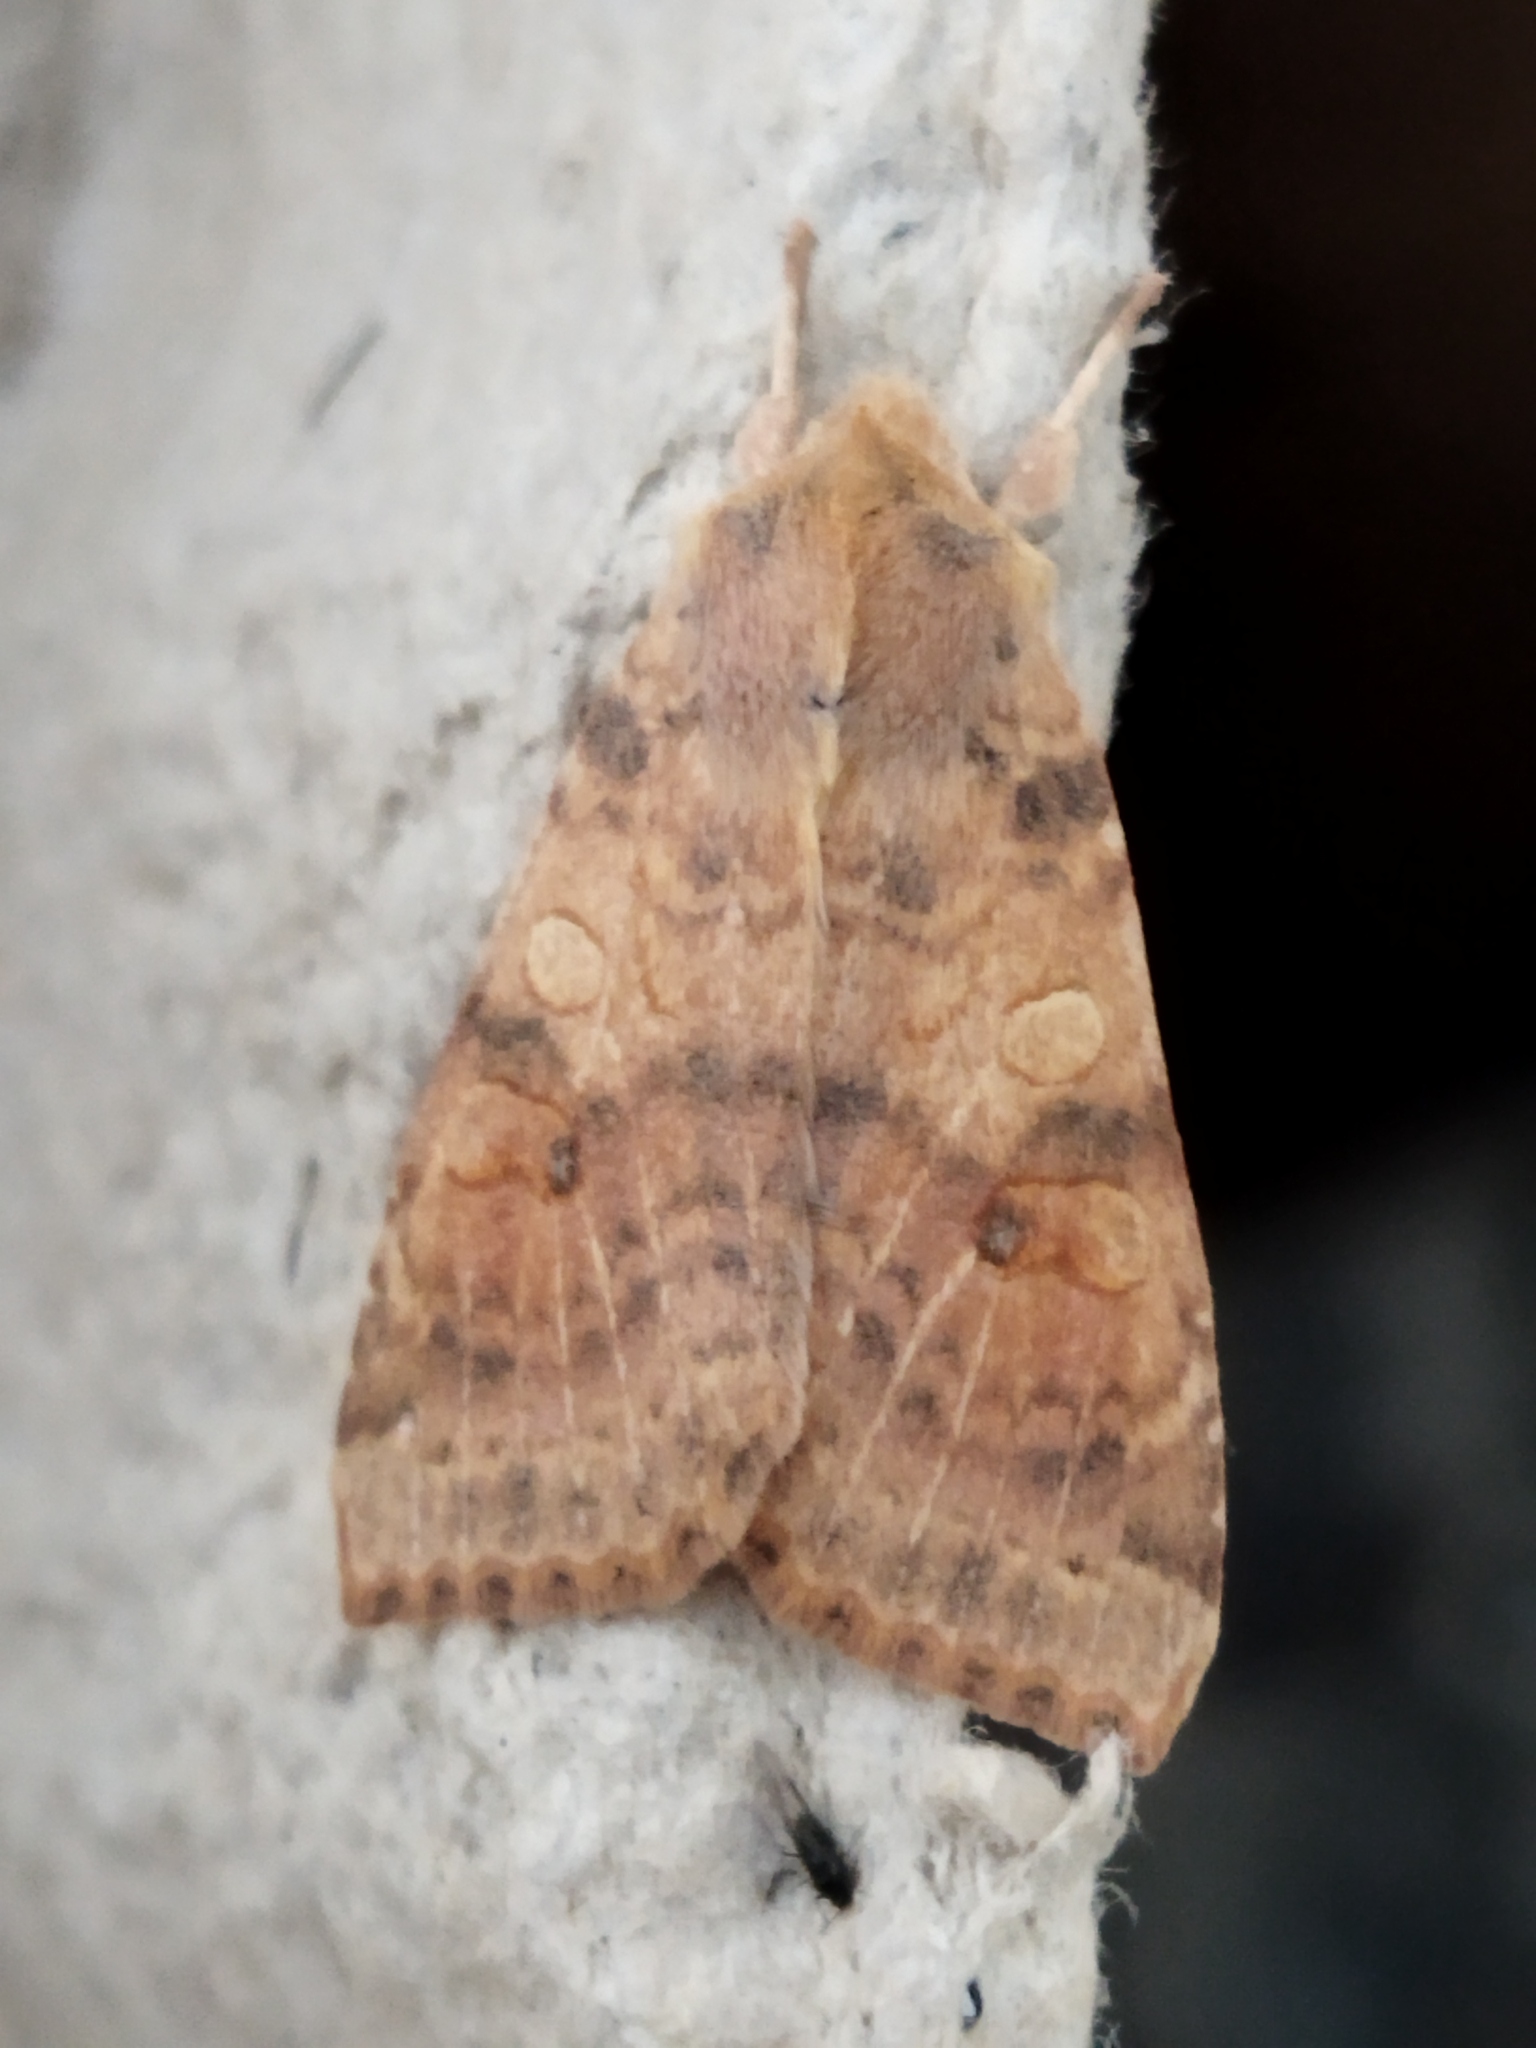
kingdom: Animalia
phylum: Arthropoda
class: Insecta
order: Lepidoptera
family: Noctuidae
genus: Xanthia
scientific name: Xanthia ocellaris
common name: Pale-lemon sallow
